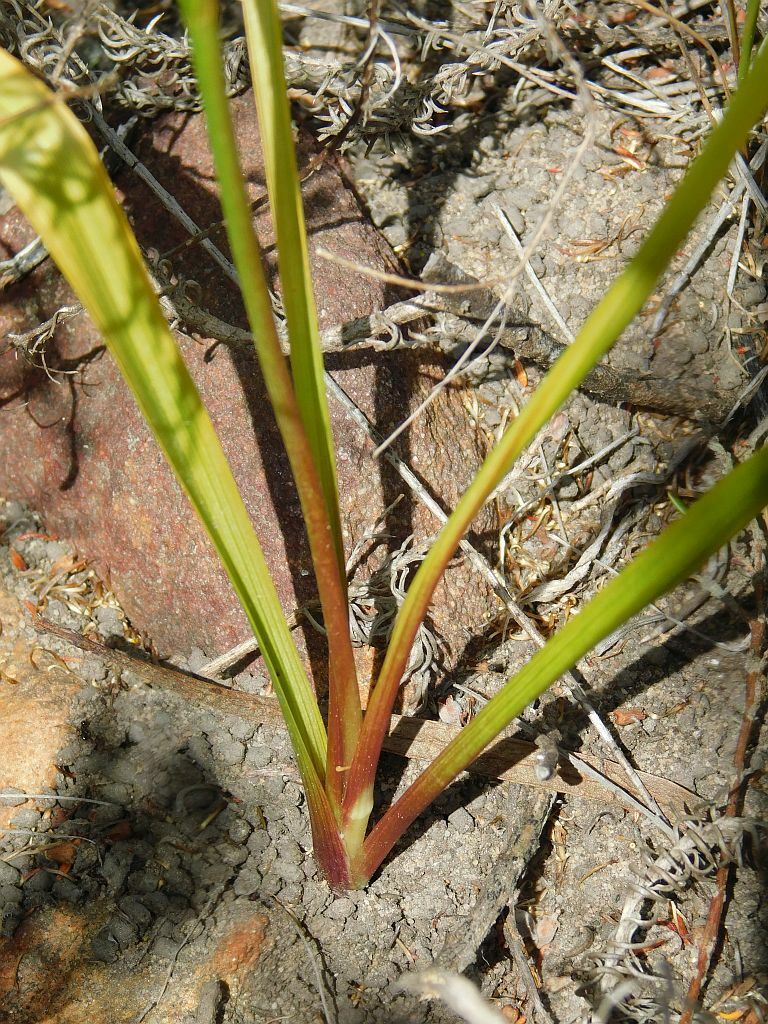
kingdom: Plantae
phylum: Tracheophyta
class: Liliopsida
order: Asparagales
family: Tecophilaeaceae
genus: Cyanella
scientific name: Cyanella lutea
